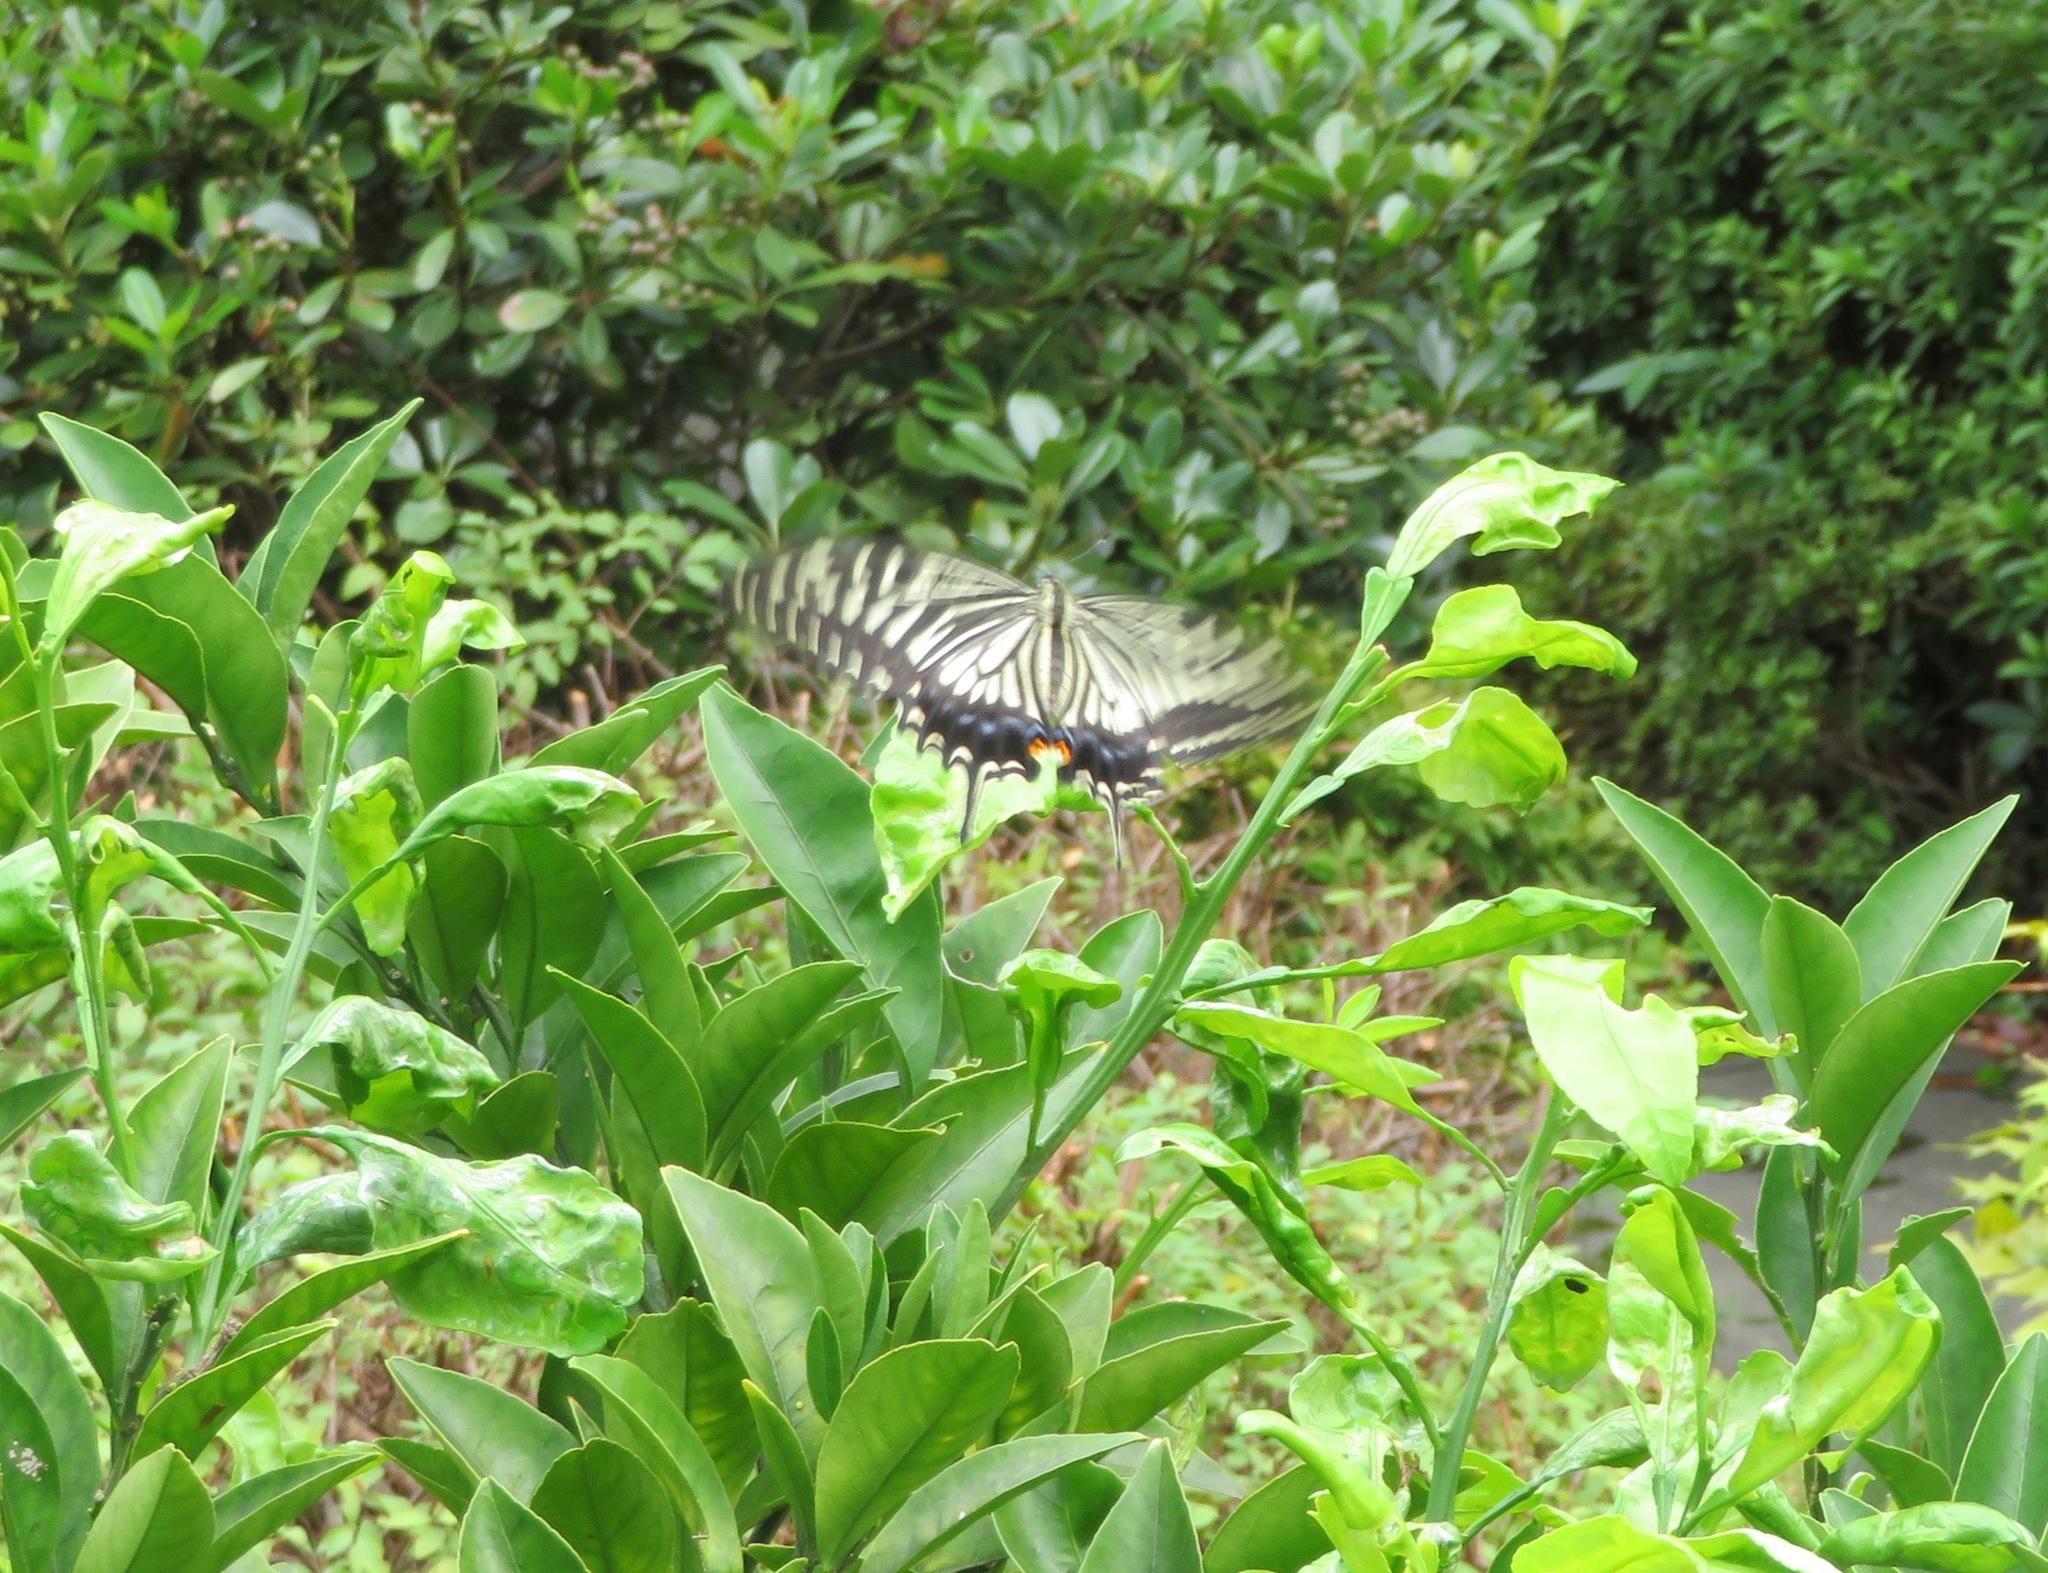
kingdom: Animalia
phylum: Arthropoda
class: Insecta
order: Lepidoptera
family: Papilionidae
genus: Papilio
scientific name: Papilio xuthus
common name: Asian swallowtail
